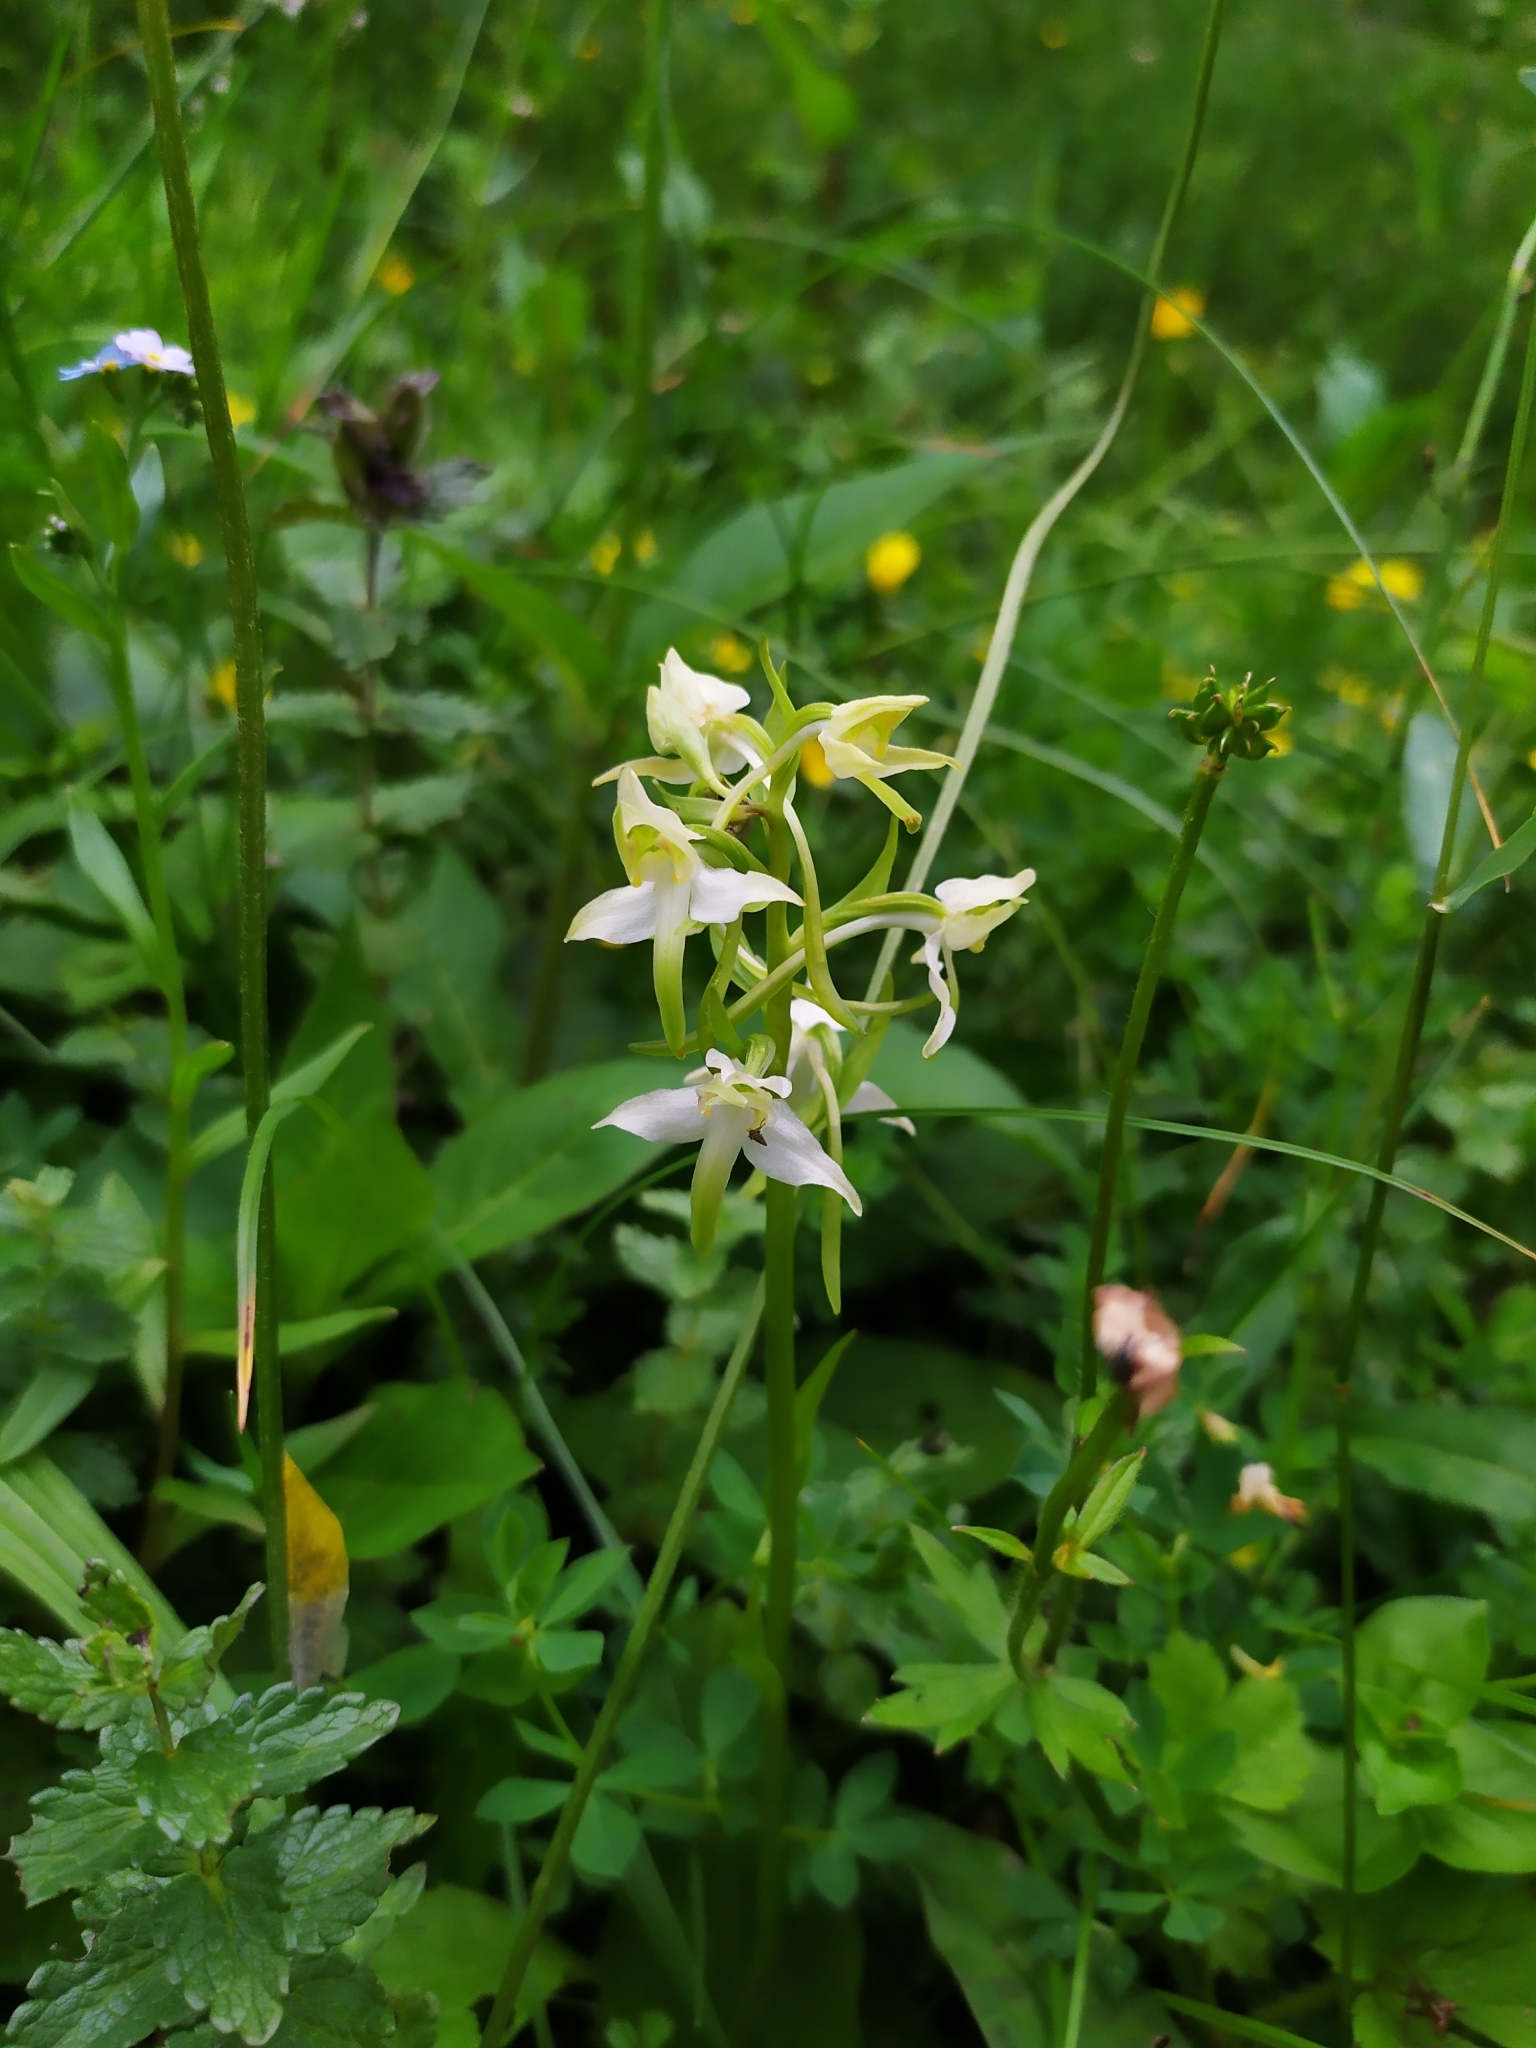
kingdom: Plantae
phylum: Tracheophyta
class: Liliopsida
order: Asparagales
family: Orchidaceae
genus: Platanthera
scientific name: Platanthera chlorantha
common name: Greater butterfly-orchid
